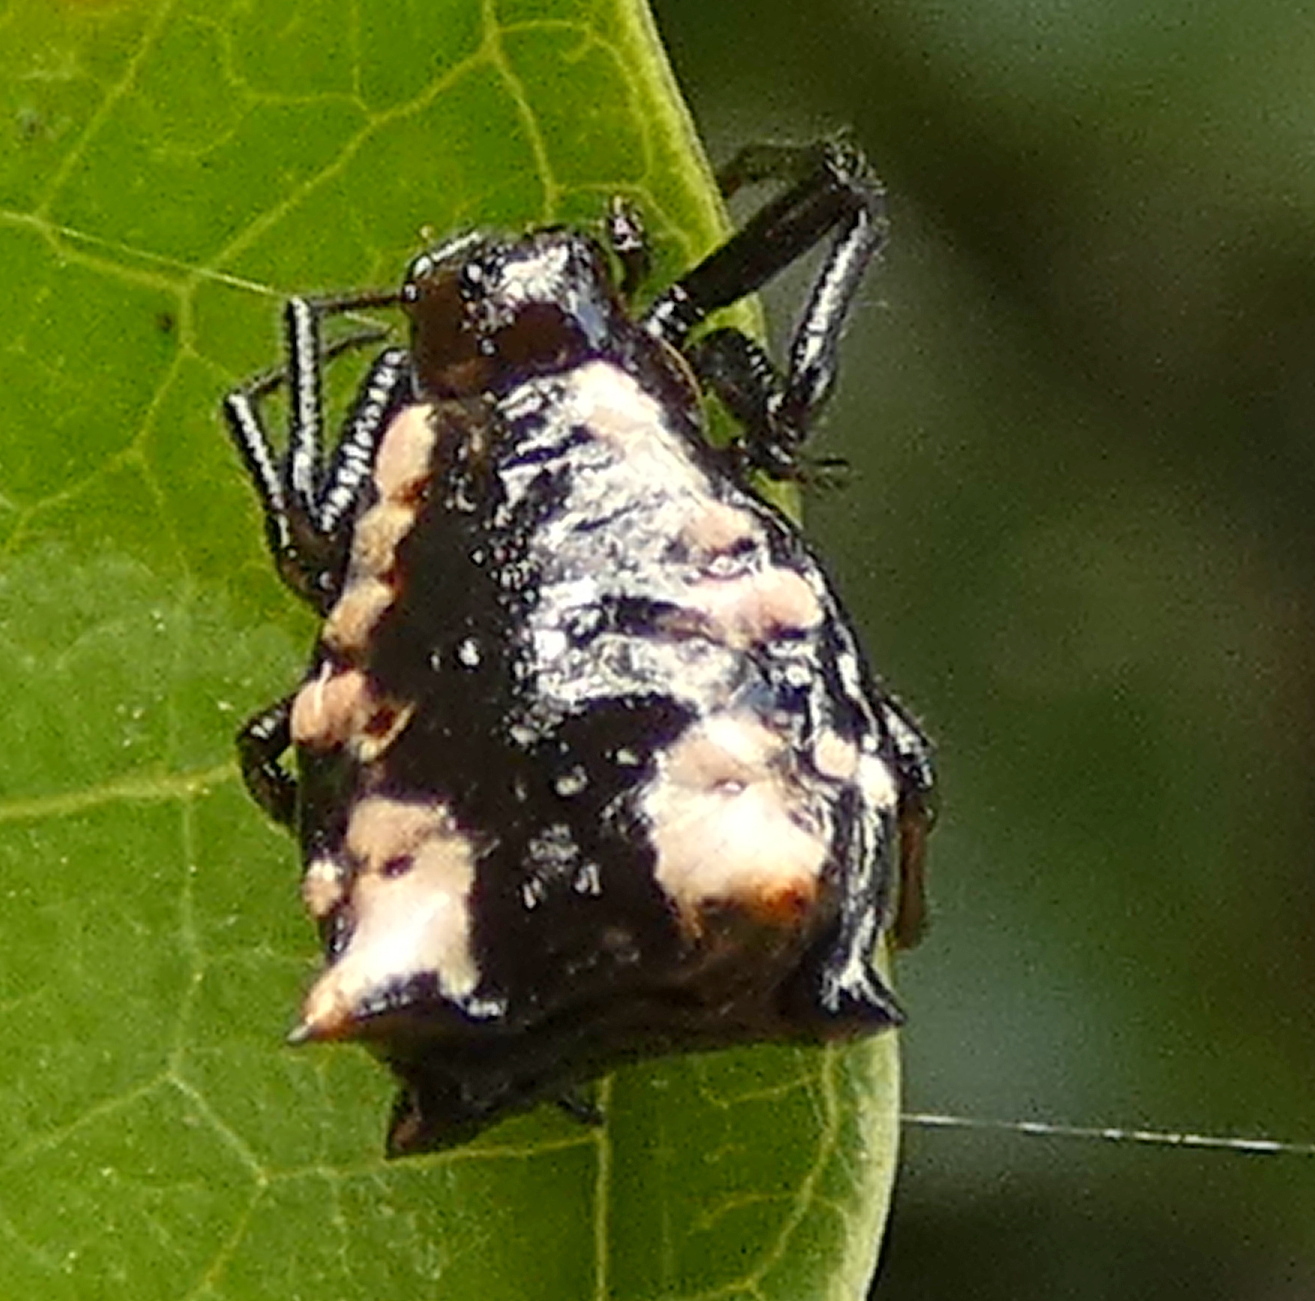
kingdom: Animalia
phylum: Arthropoda
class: Arachnida
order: Araneae
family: Araneidae
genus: Micrathena
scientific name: Micrathena patruelis
